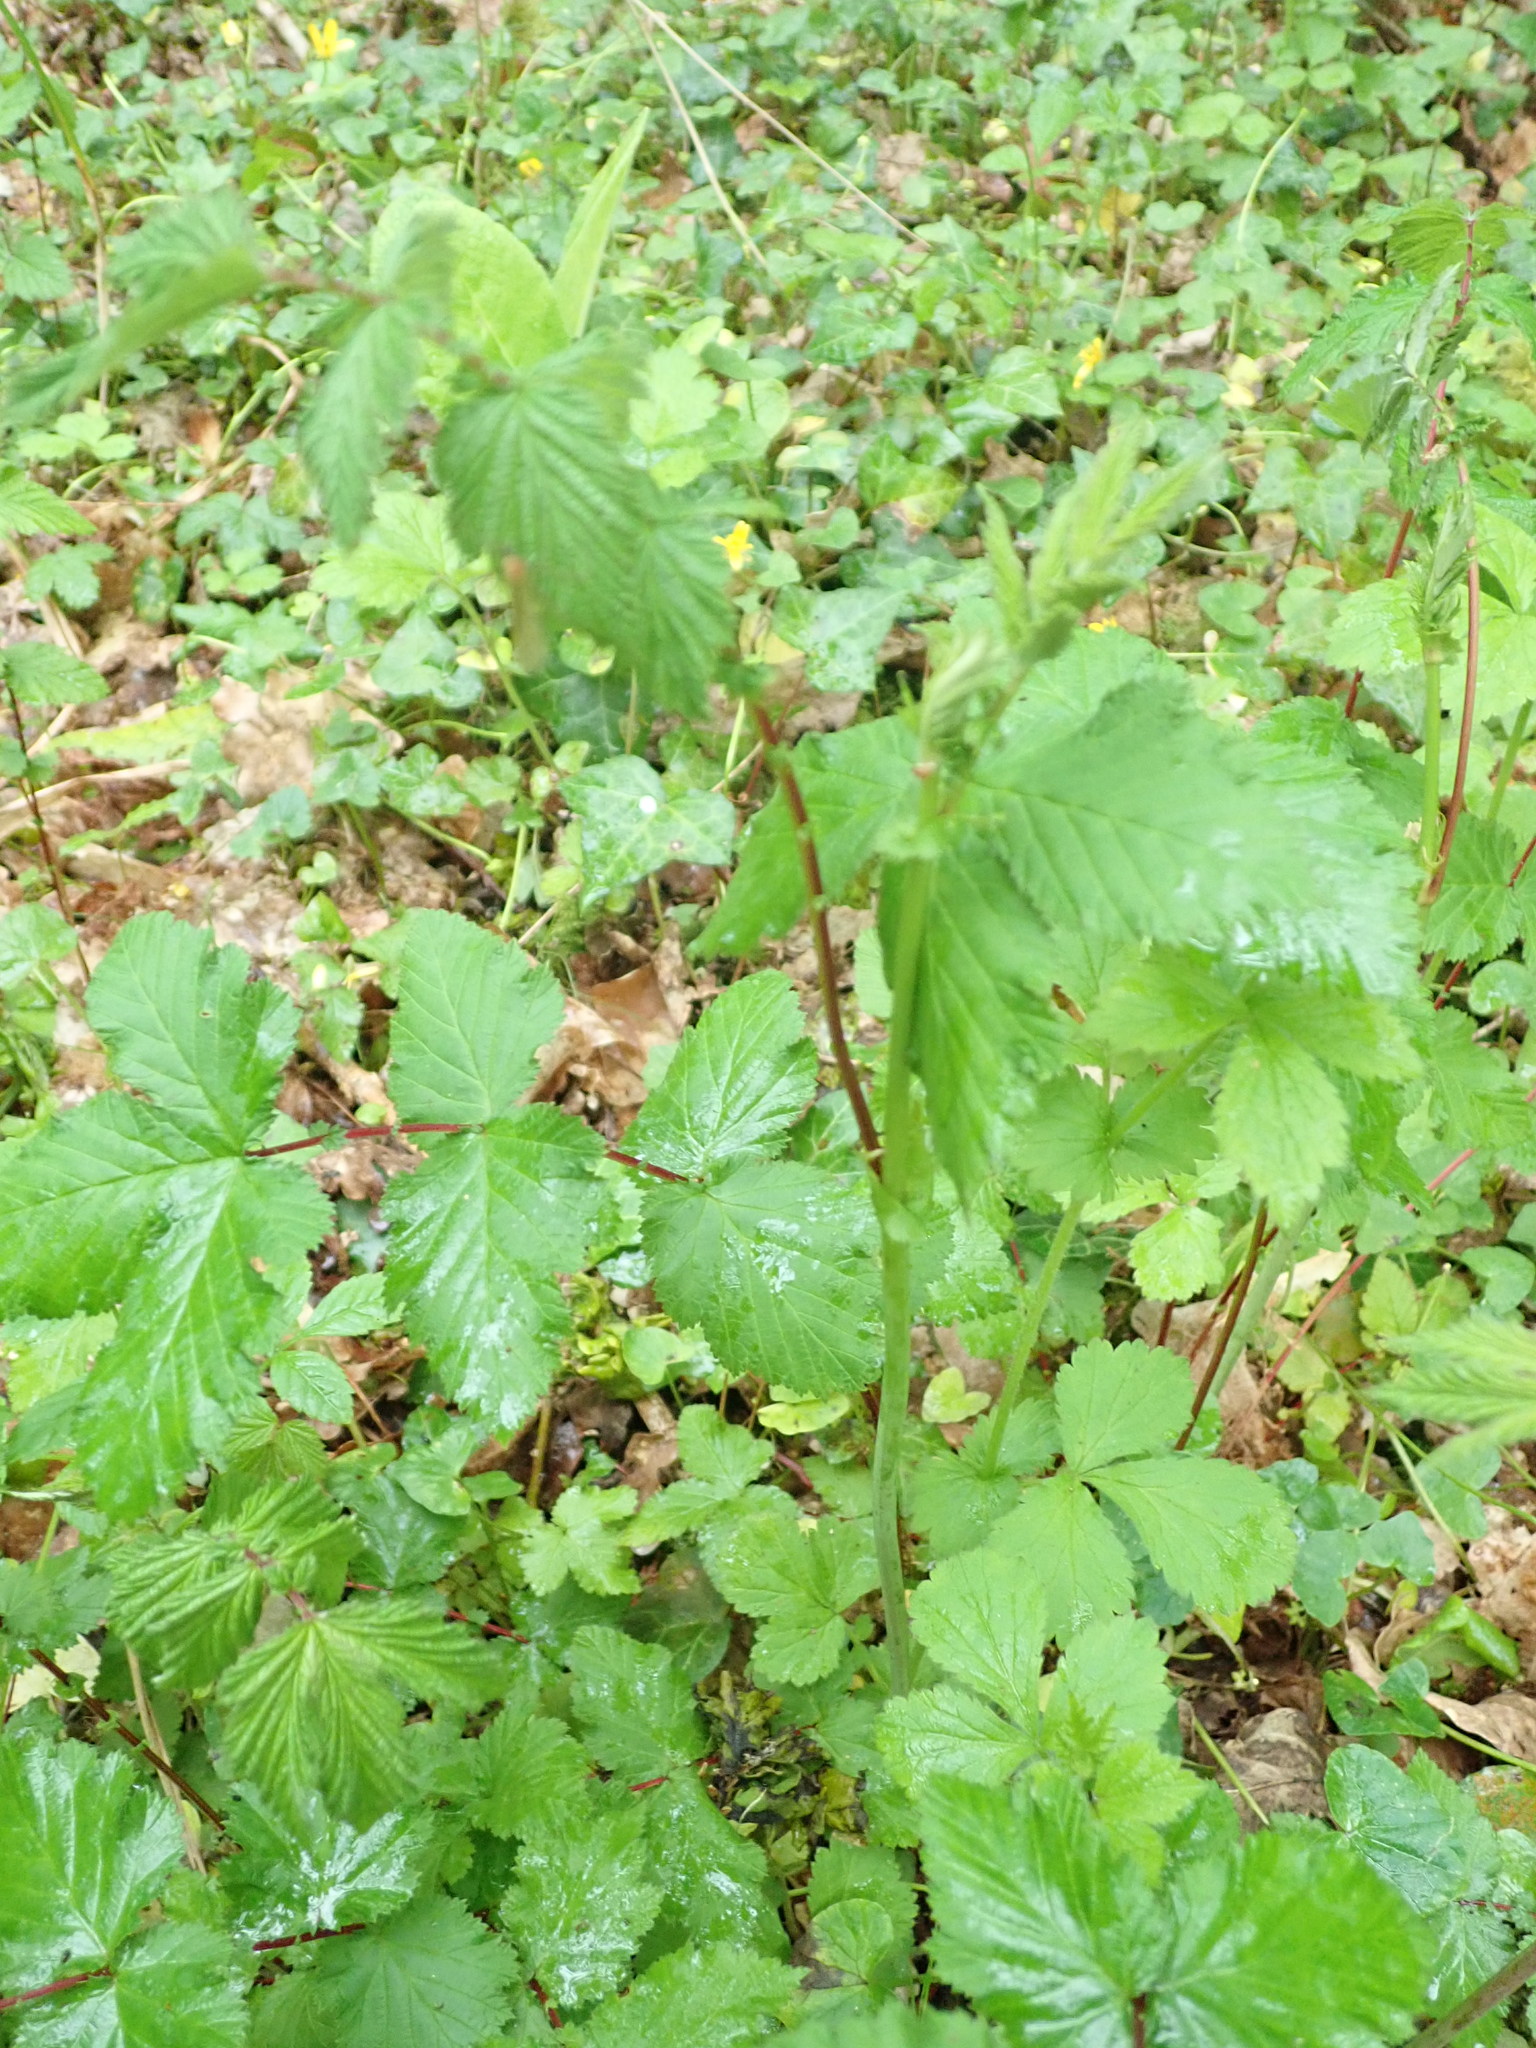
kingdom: Plantae
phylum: Tracheophyta
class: Magnoliopsida
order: Rosales
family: Rosaceae
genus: Filipendula
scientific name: Filipendula ulmaria
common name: Meadowsweet
